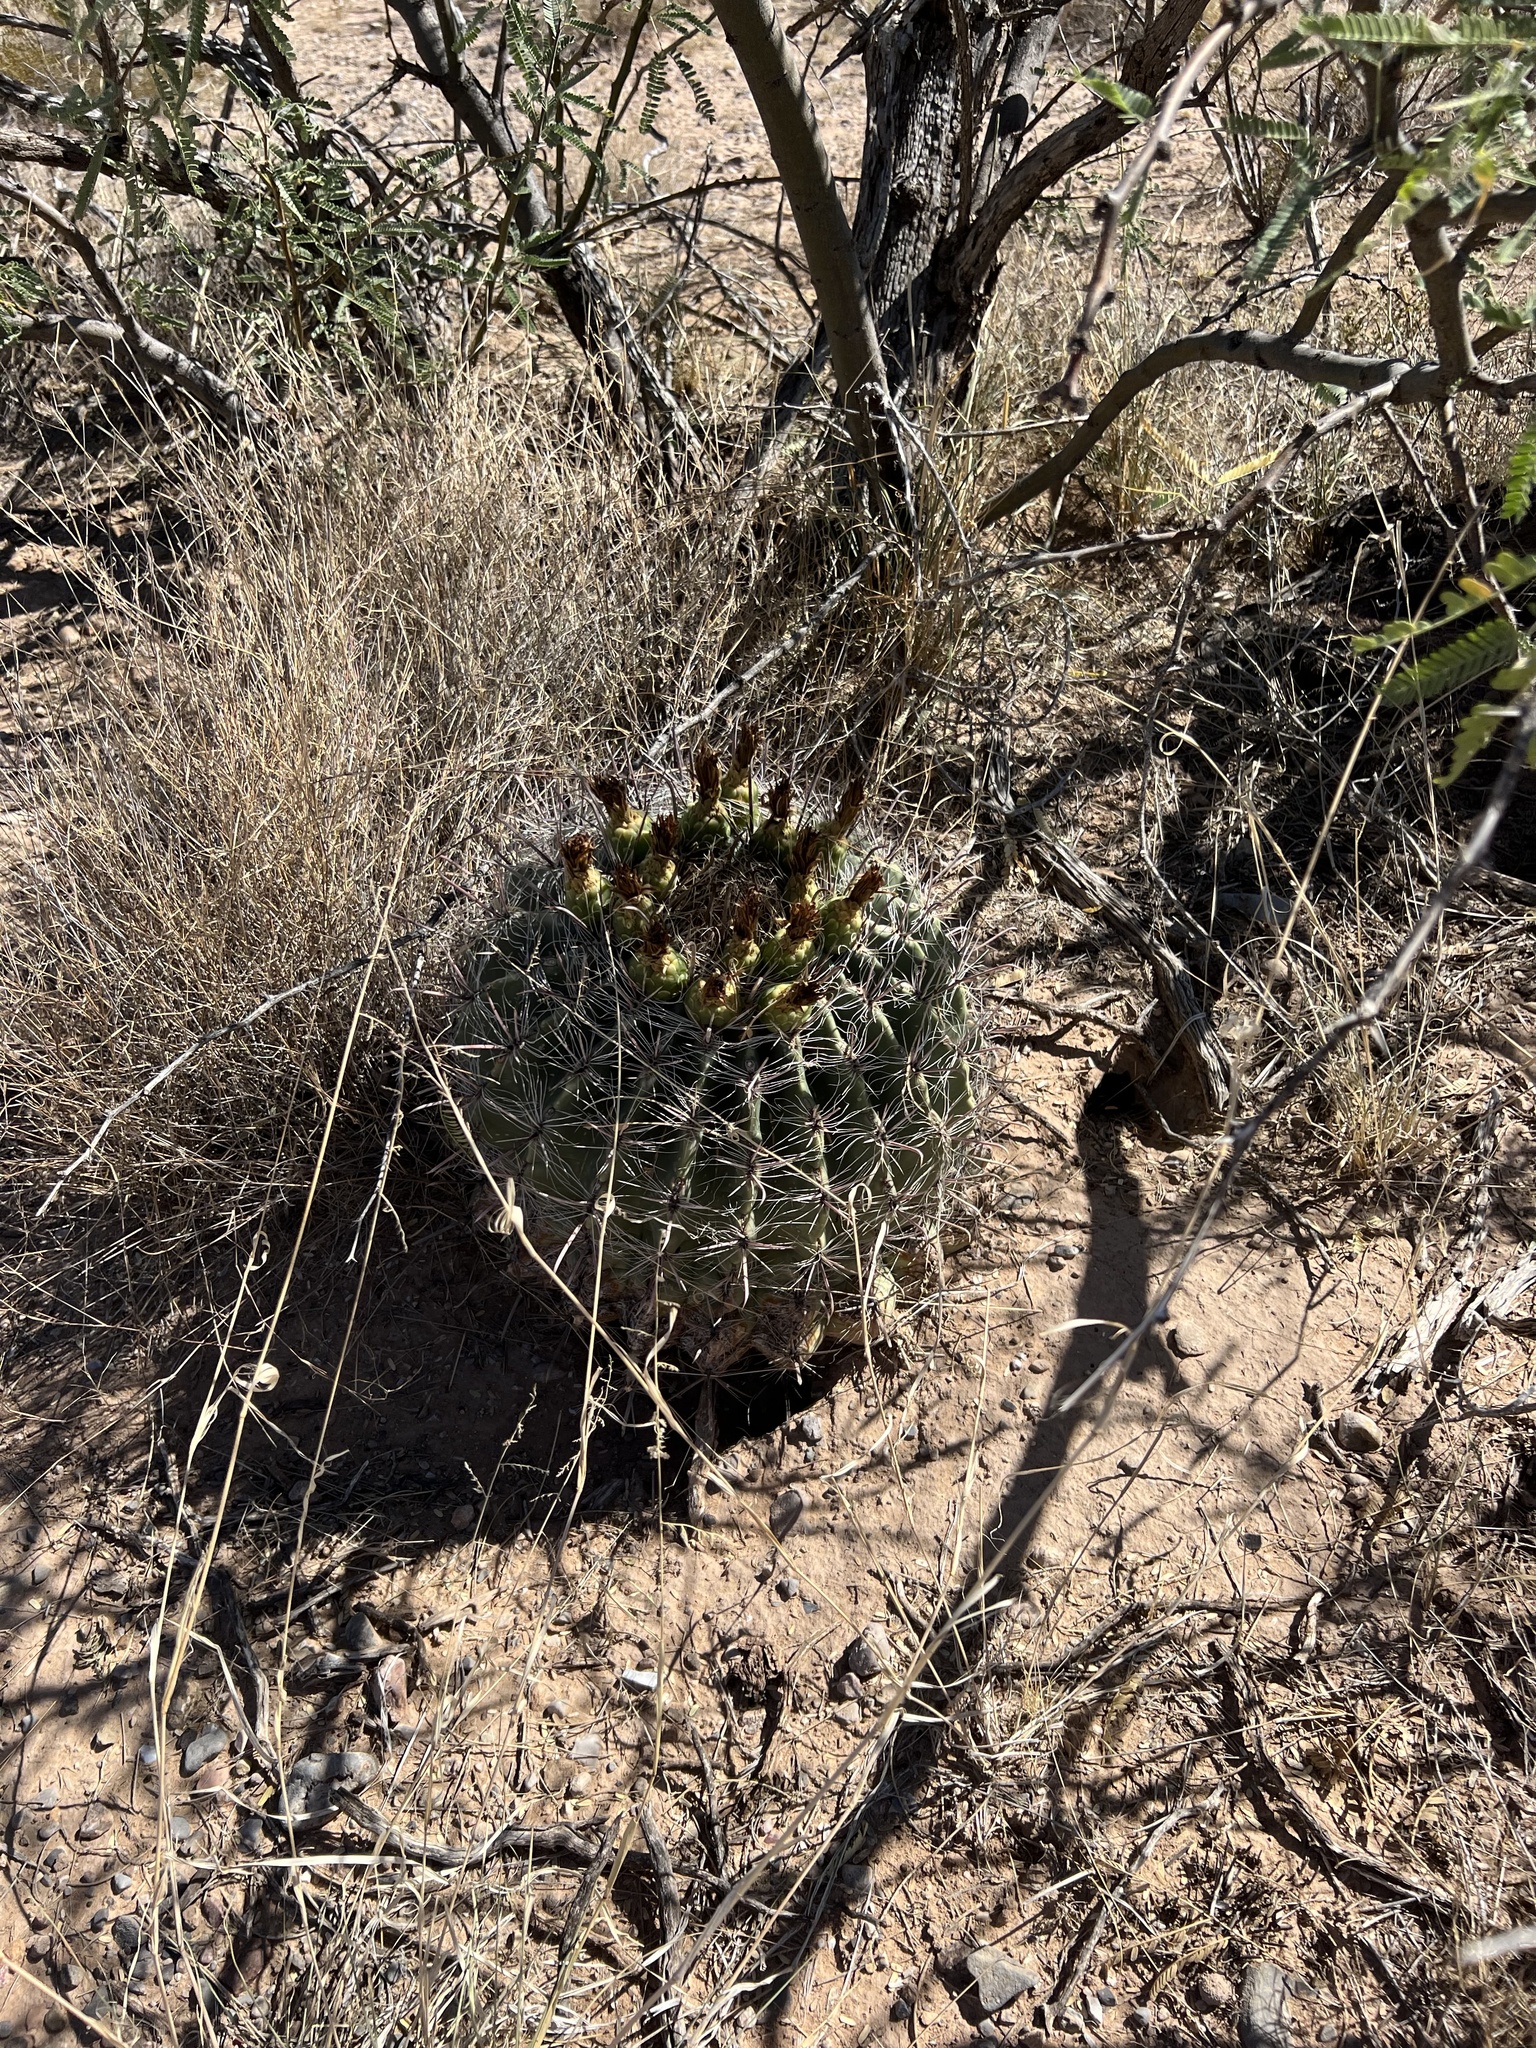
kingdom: Plantae
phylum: Tracheophyta
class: Magnoliopsida
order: Caryophyllales
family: Cactaceae
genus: Ferocactus
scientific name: Ferocactus wislizeni
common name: Candy barrel cactus
